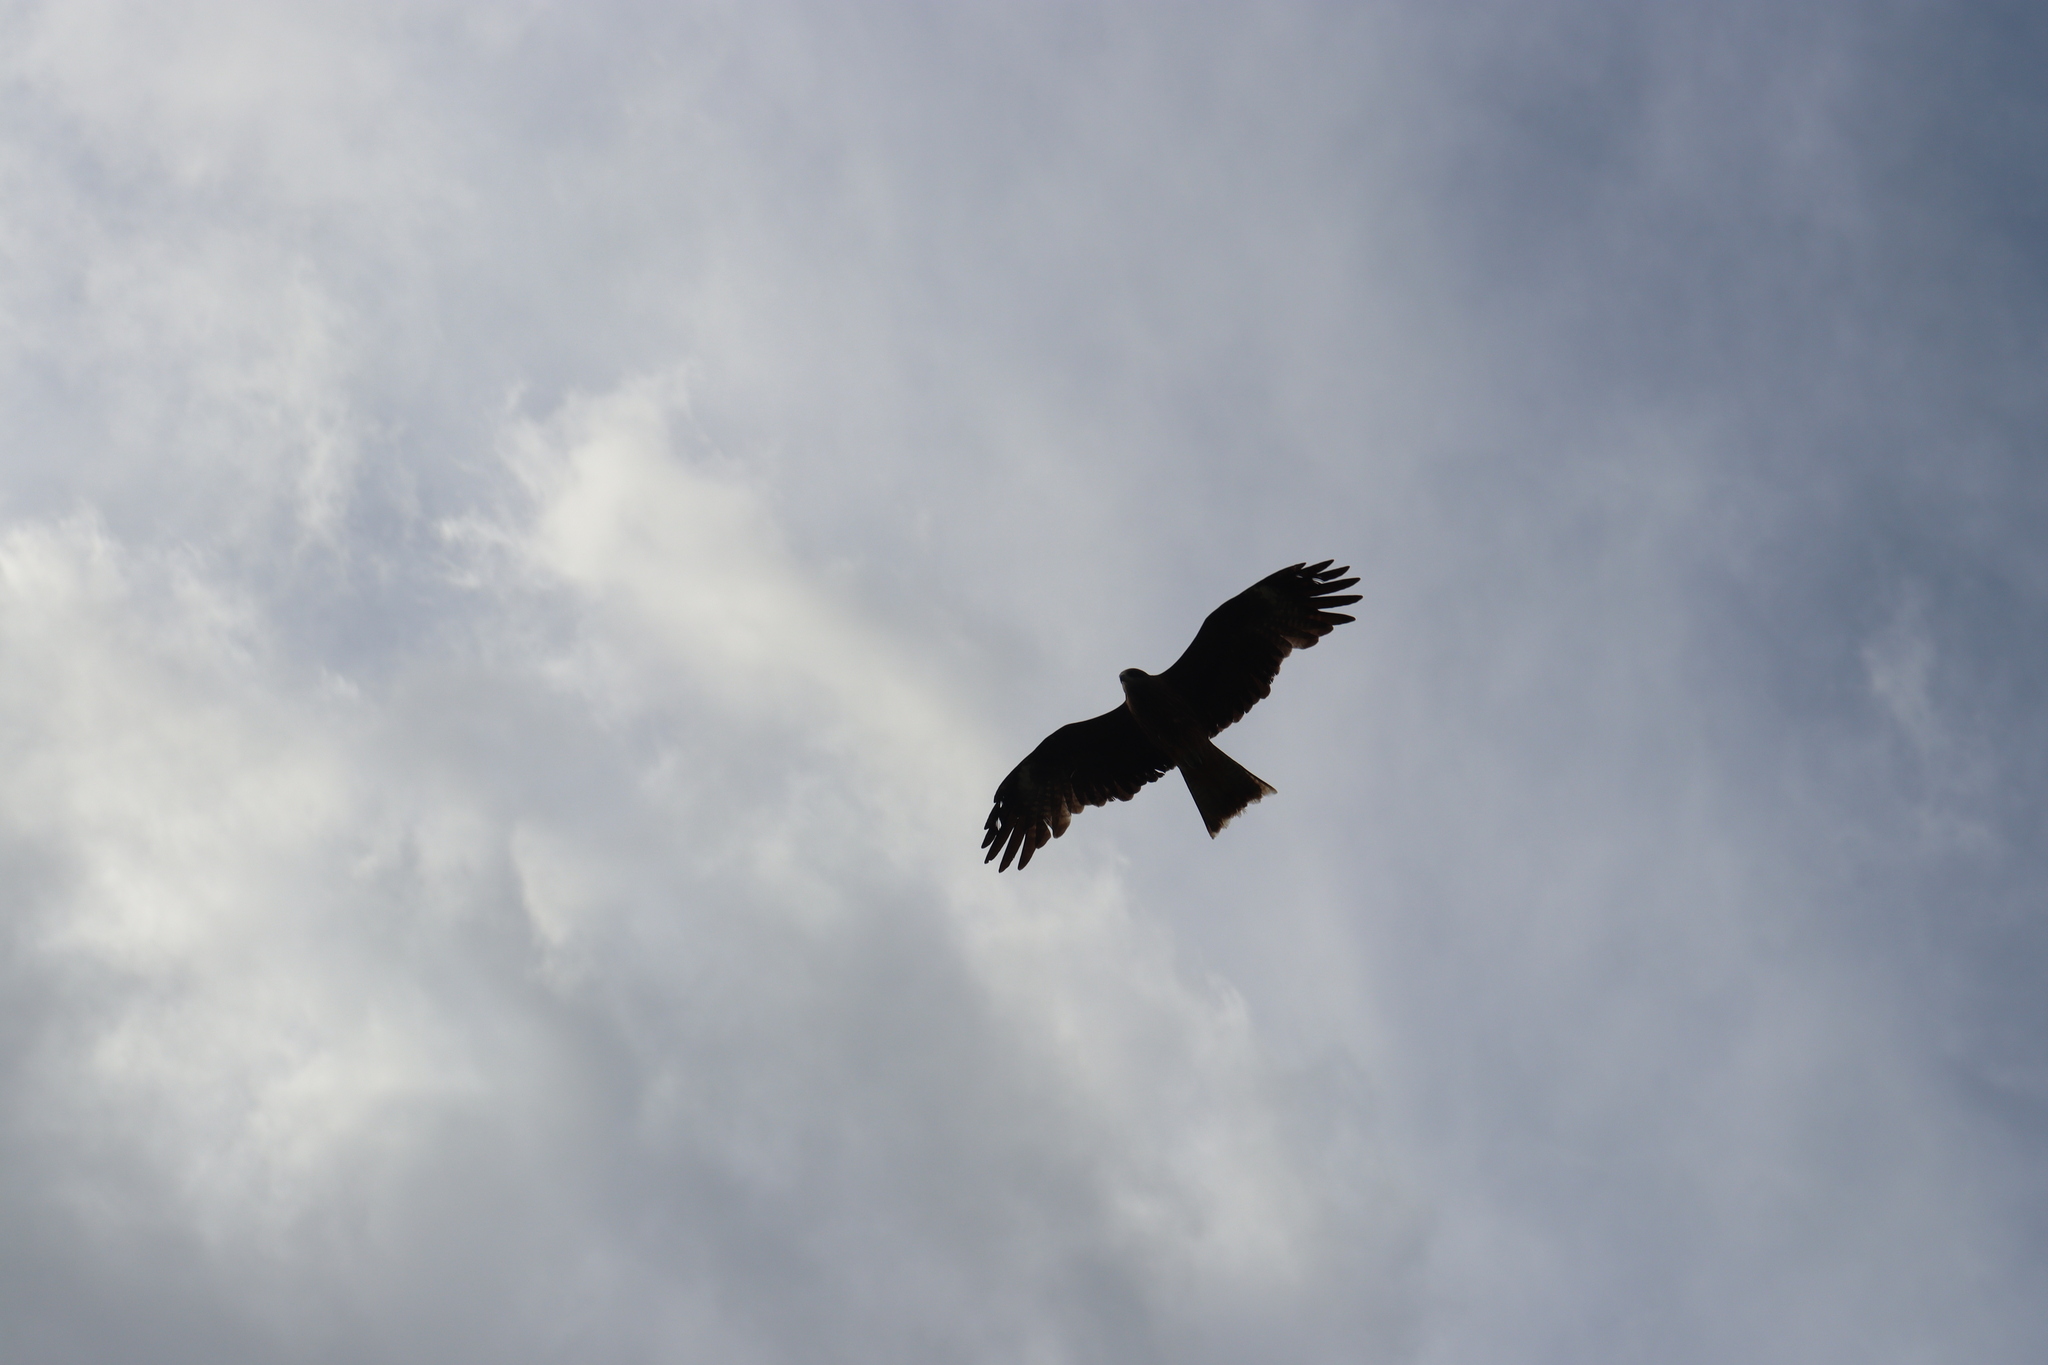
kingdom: Animalia
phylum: Chordata
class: Aves
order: Accipitriformes
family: Accipitridae
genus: Milvus
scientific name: Milvus migrans
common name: Black kite
